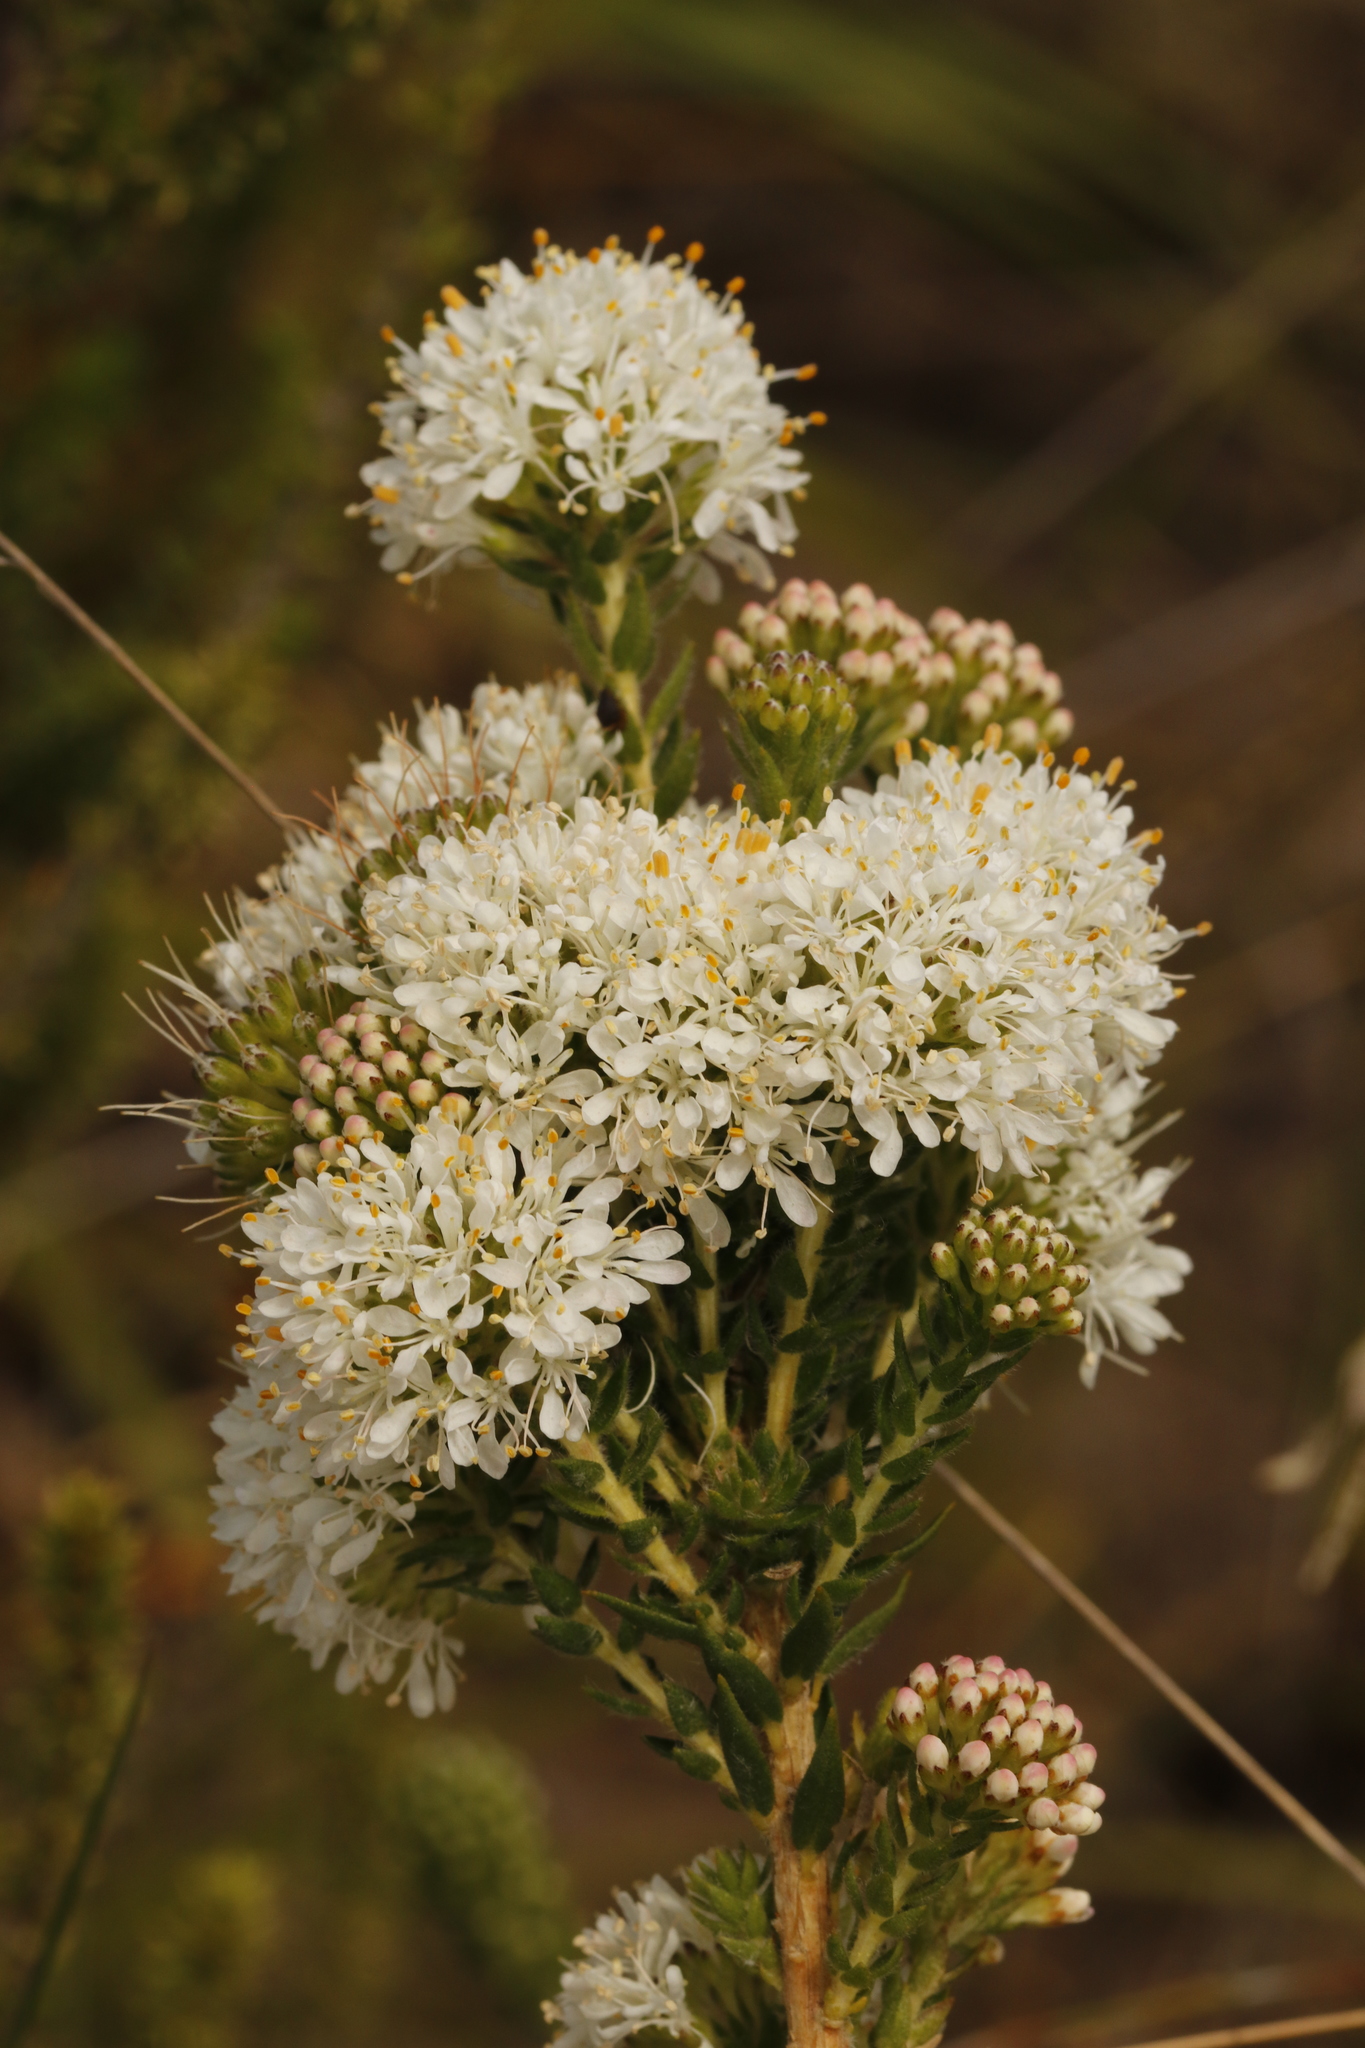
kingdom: Plantae
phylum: Tracheophyta
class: Magnoliopsida
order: Sapindales
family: Rutaceae
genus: Agathosma
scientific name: Agathosma
